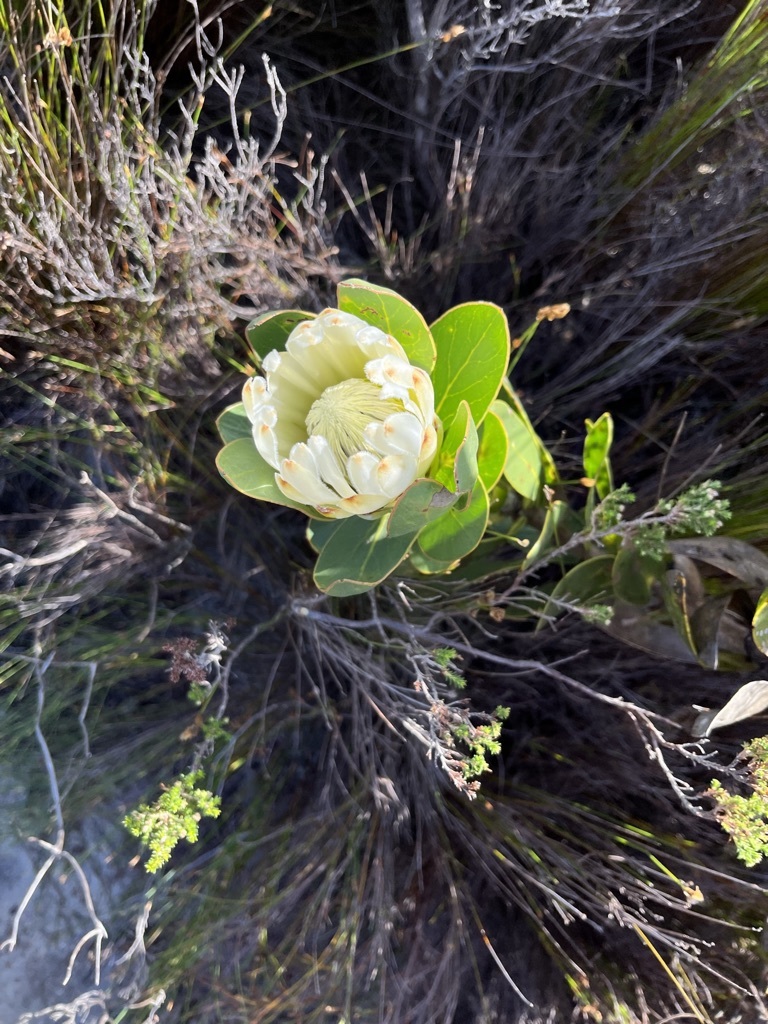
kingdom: Plantae
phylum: Tracheophyta
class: Magnoliopsida
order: Proteales
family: Proteaceae
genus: Protea
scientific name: Protea compacta
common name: Bot river protea
